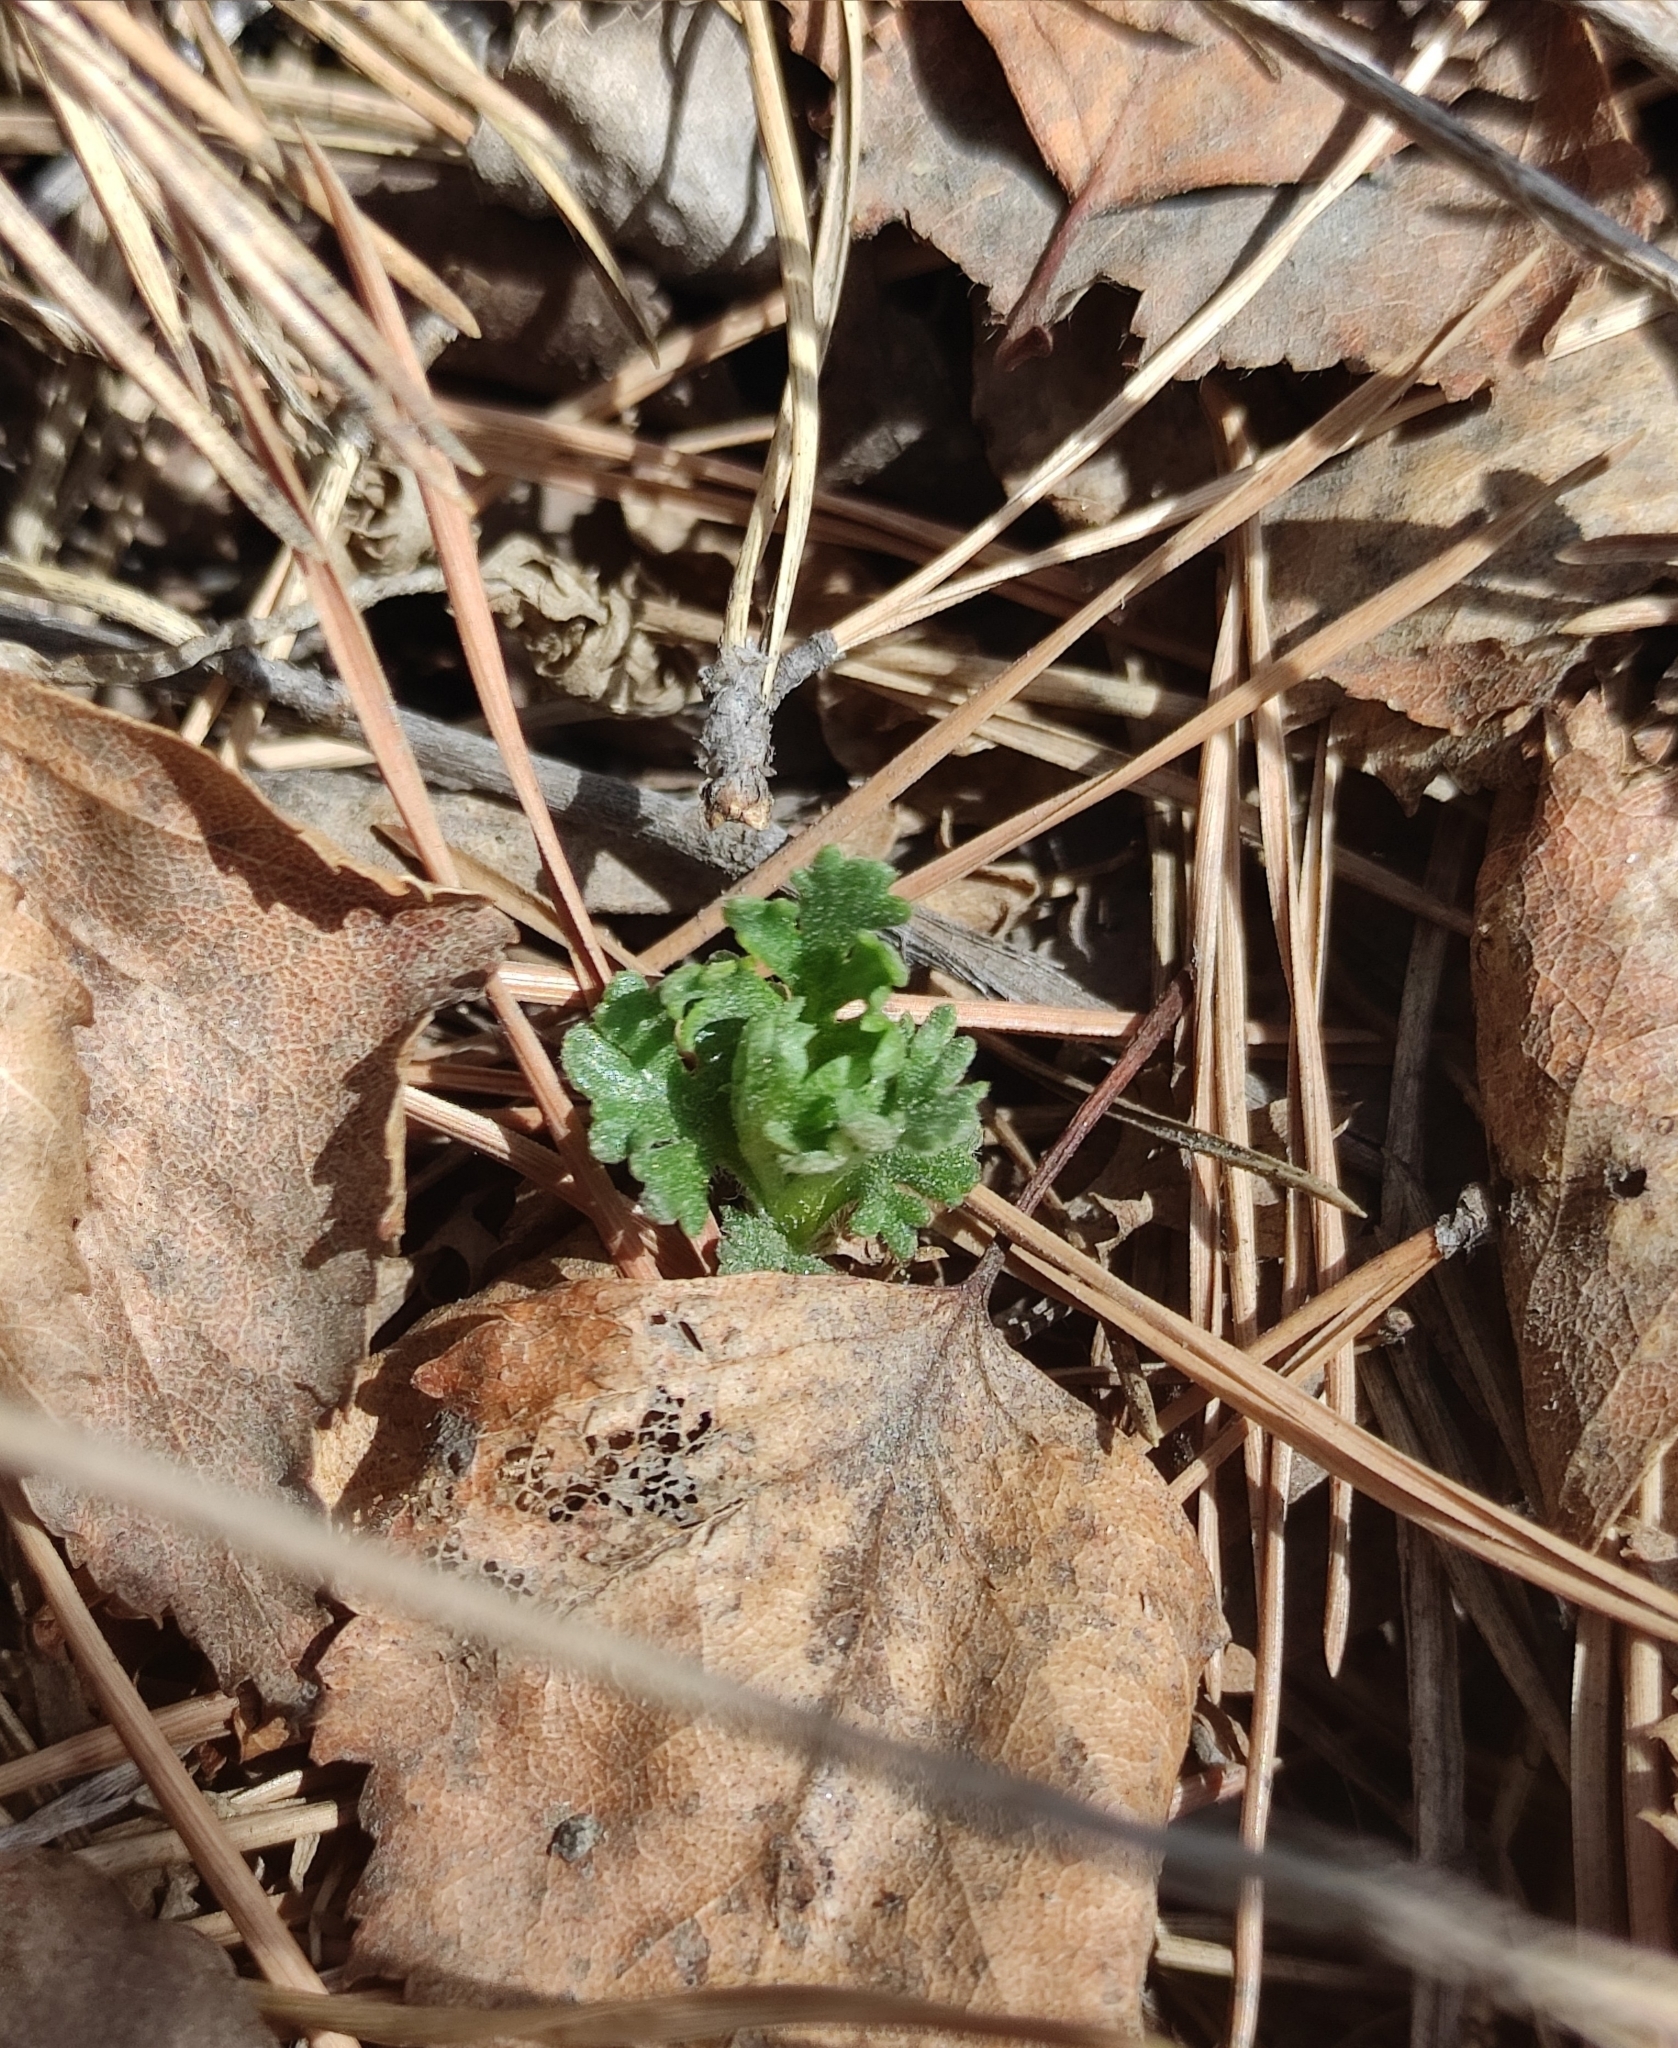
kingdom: Plantae
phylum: Tracheophyta
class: Magnoliopsida
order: Asterales
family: Asteraceae
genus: Chrysanthemum
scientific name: Chrysanthemum zawadzkii
